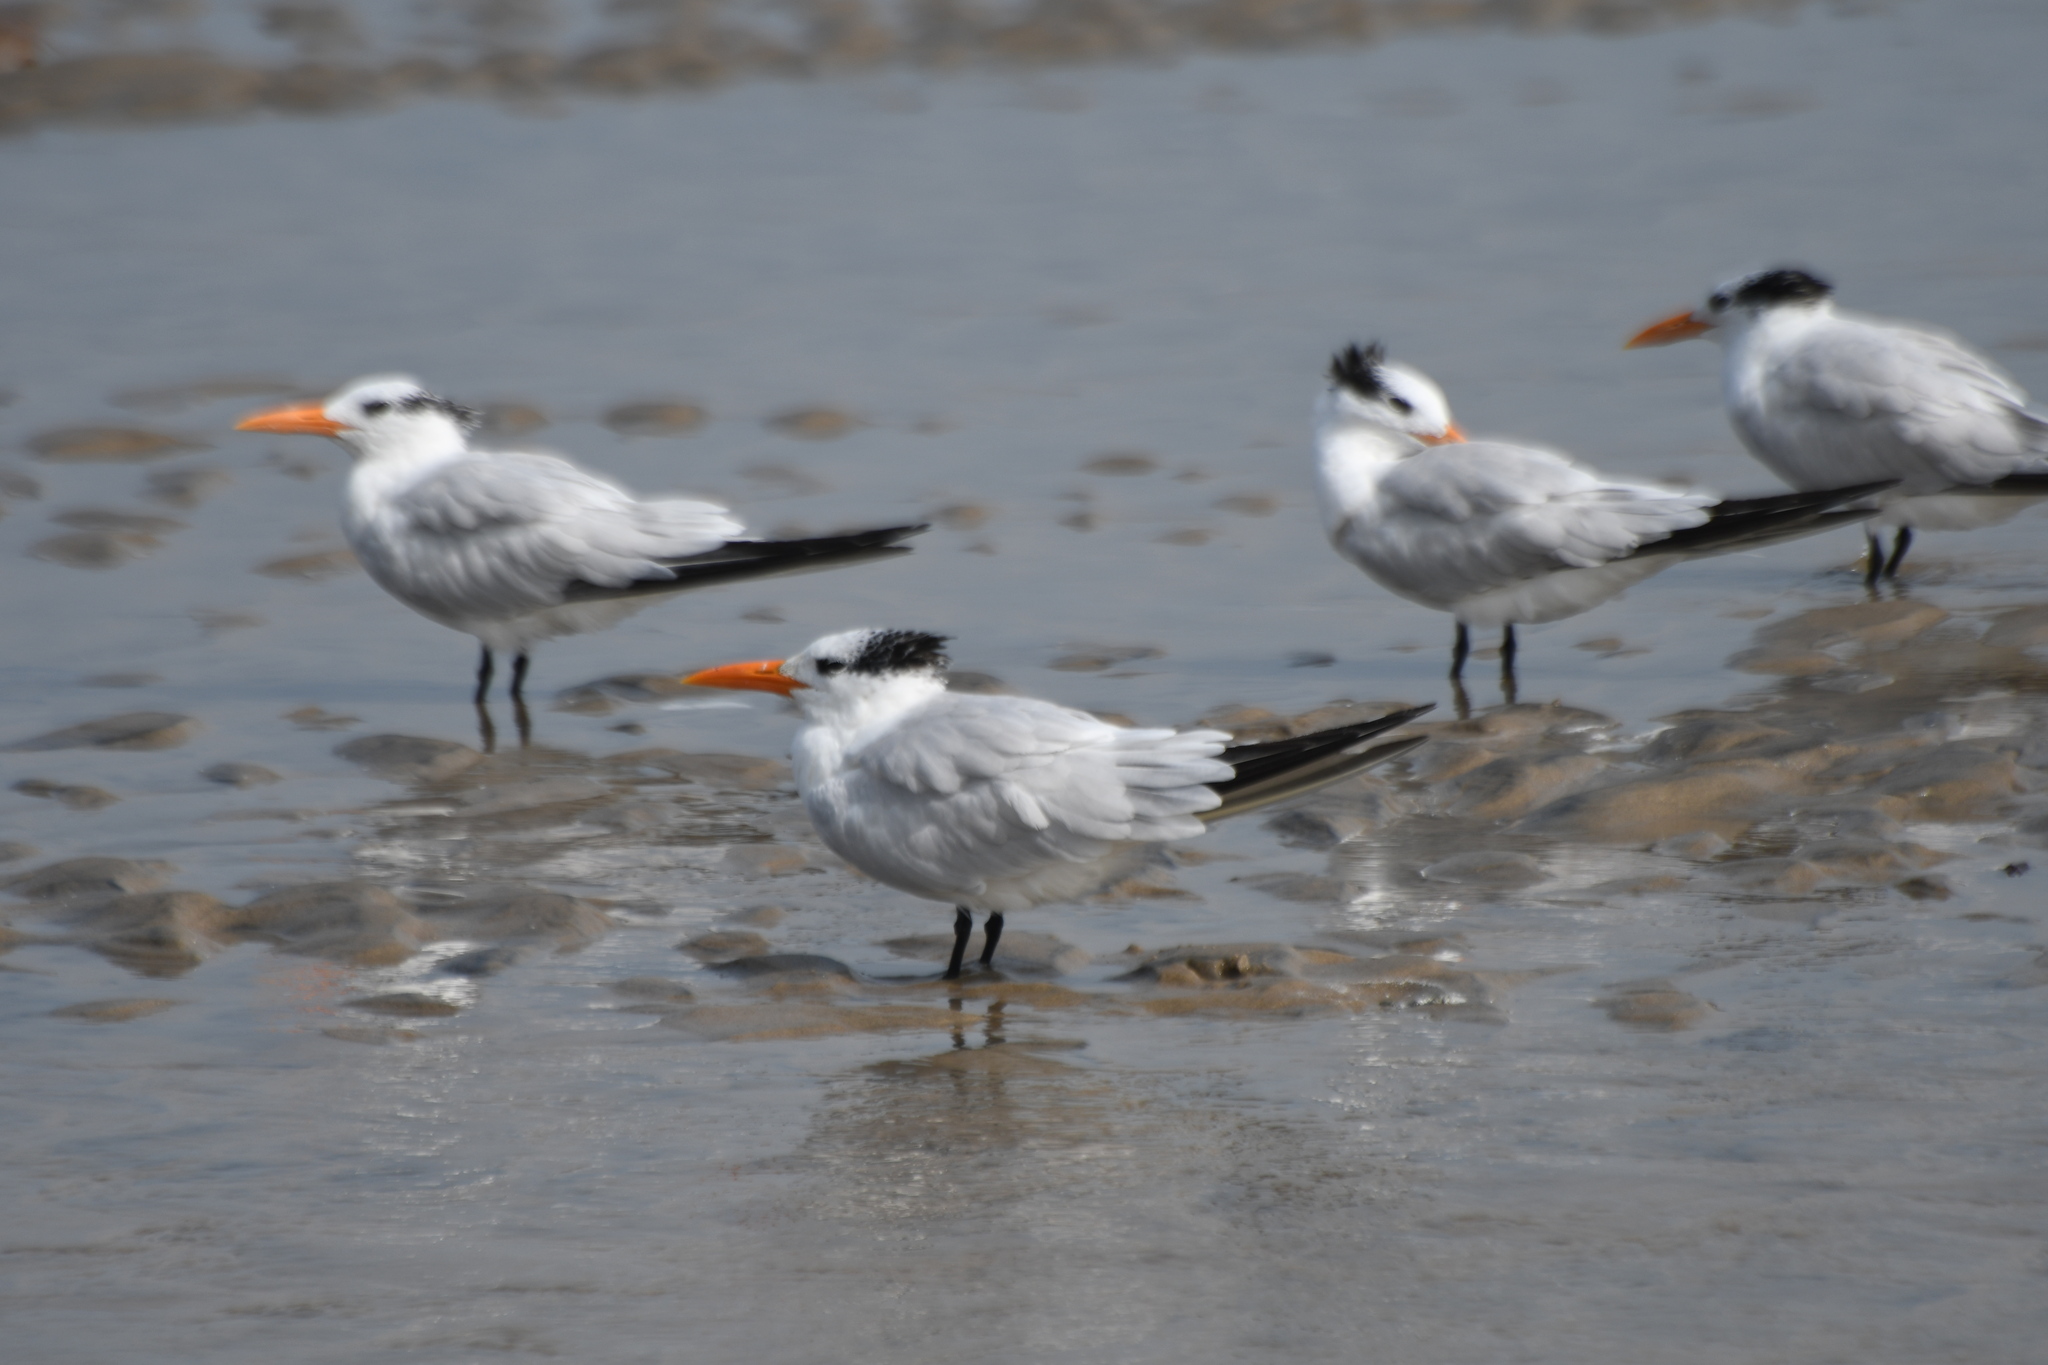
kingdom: Animalia
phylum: Chordata
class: Aves
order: Charadriiformes
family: Laridae
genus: Thalasseus
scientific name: Thalasseus maximus
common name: Royal tern
